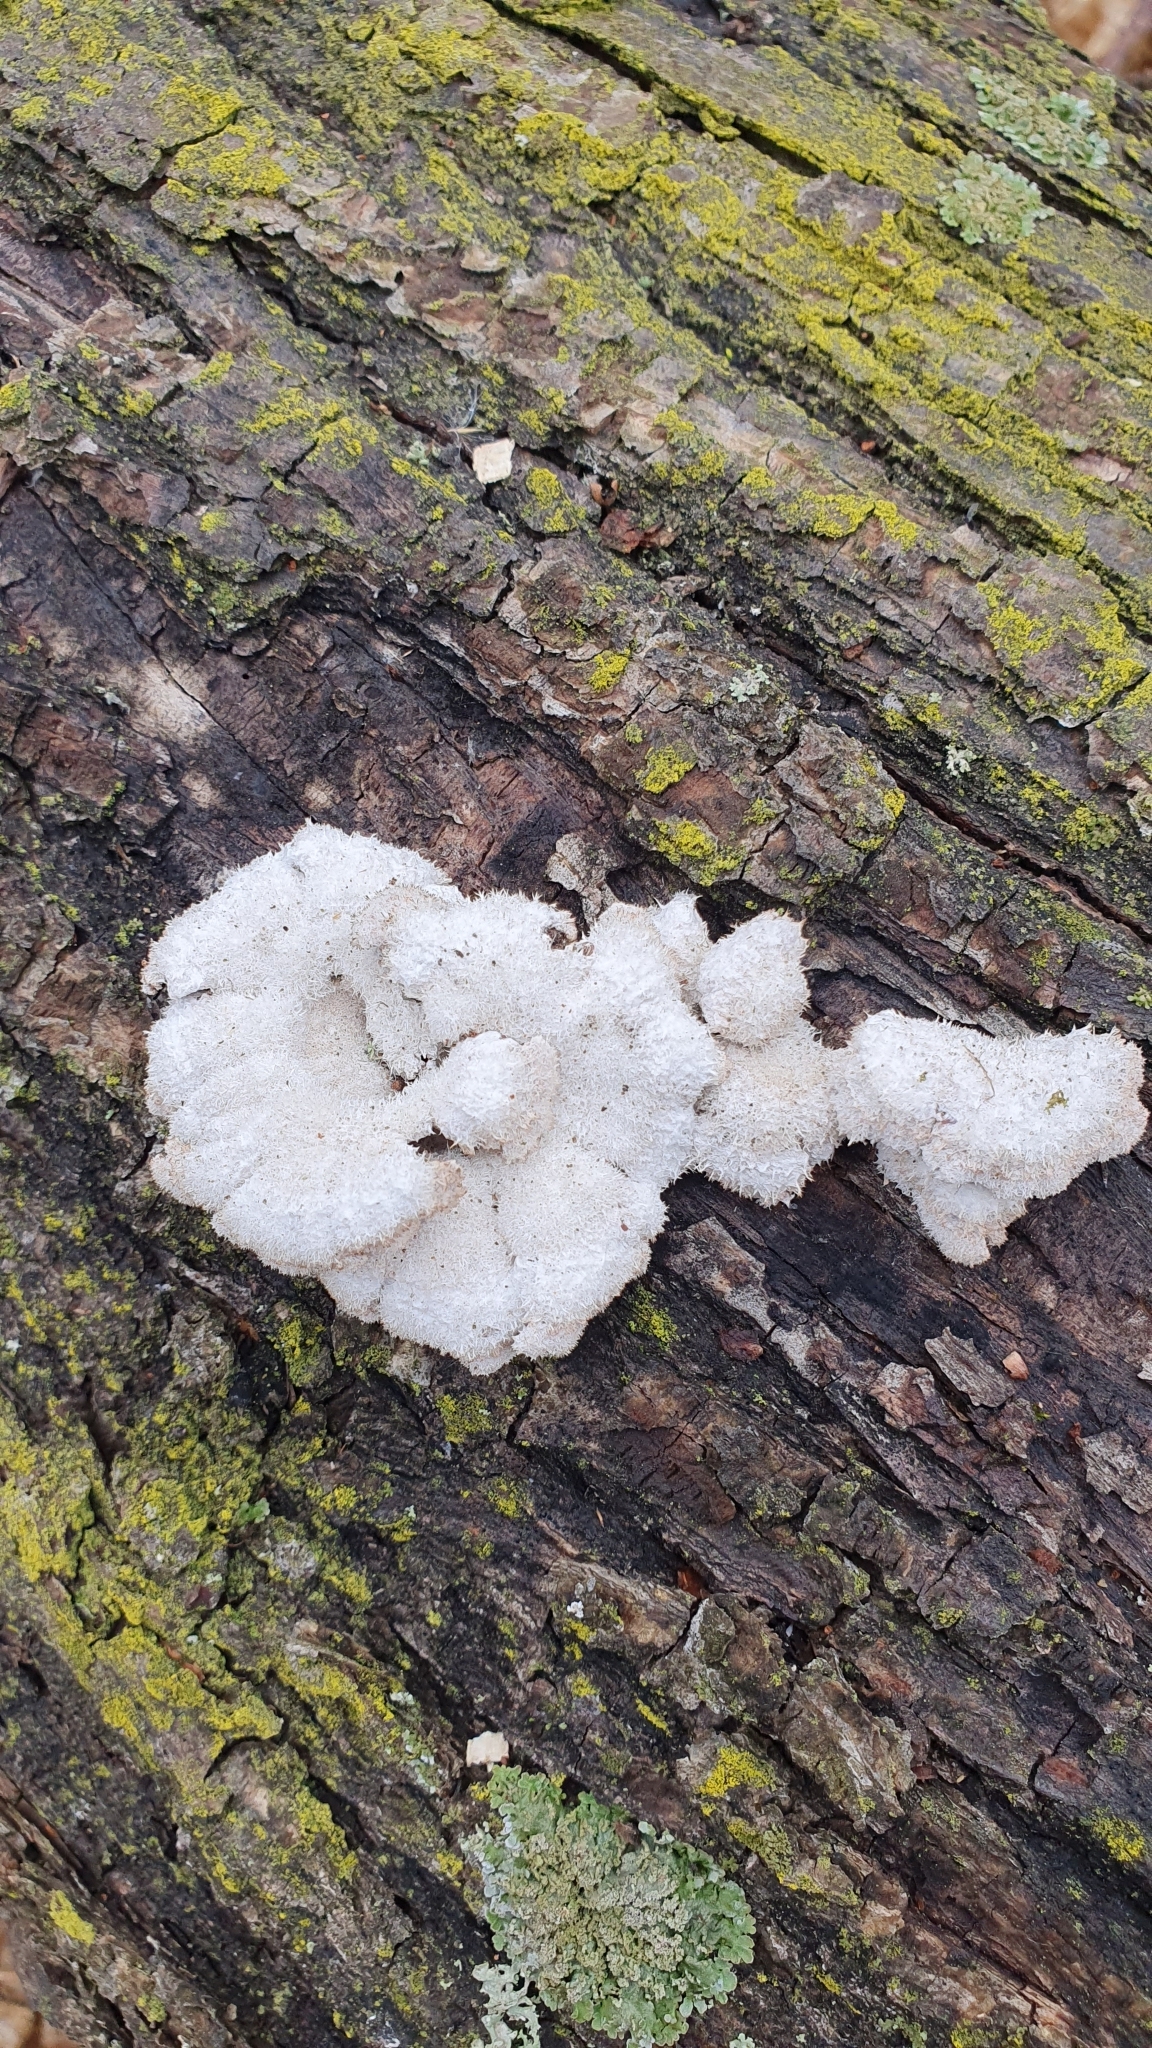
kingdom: Fungi
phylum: Basidiomycota
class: Agaricomycetes
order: Agaricales
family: Schizophyllaceae
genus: Schizophyllum
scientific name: Schizophyllum commune
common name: Common porecrust
